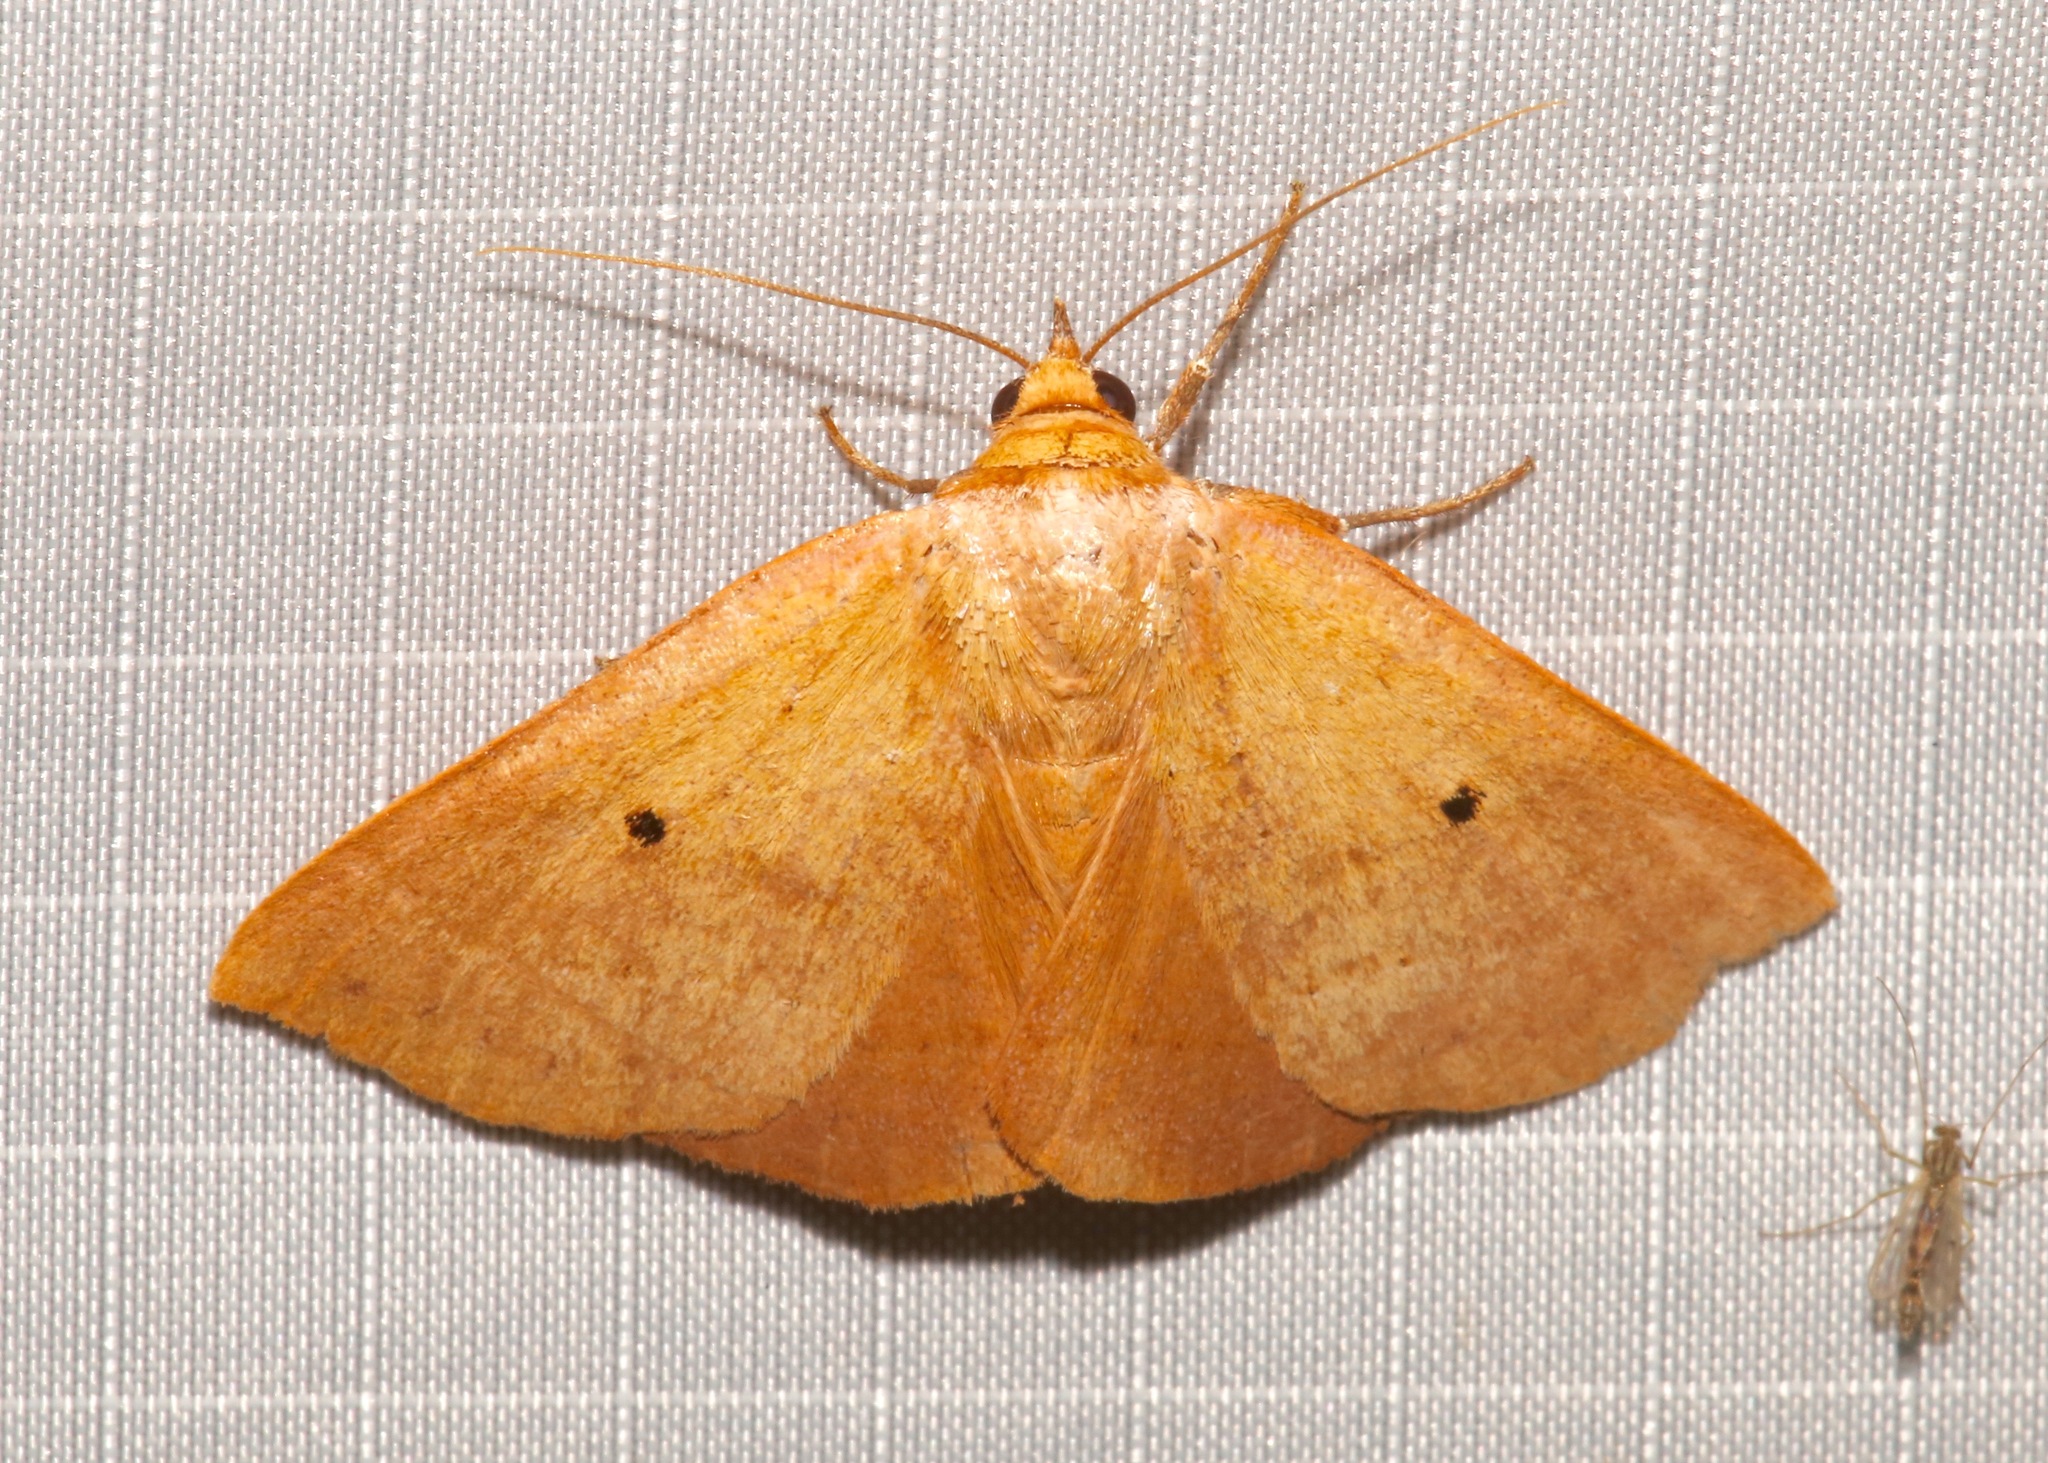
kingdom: Animalia
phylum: Arthropoda
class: Insecta
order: Lepidoptera
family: Erebidae
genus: Panopoda
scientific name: Panopoda repanda
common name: Orange panopoda
